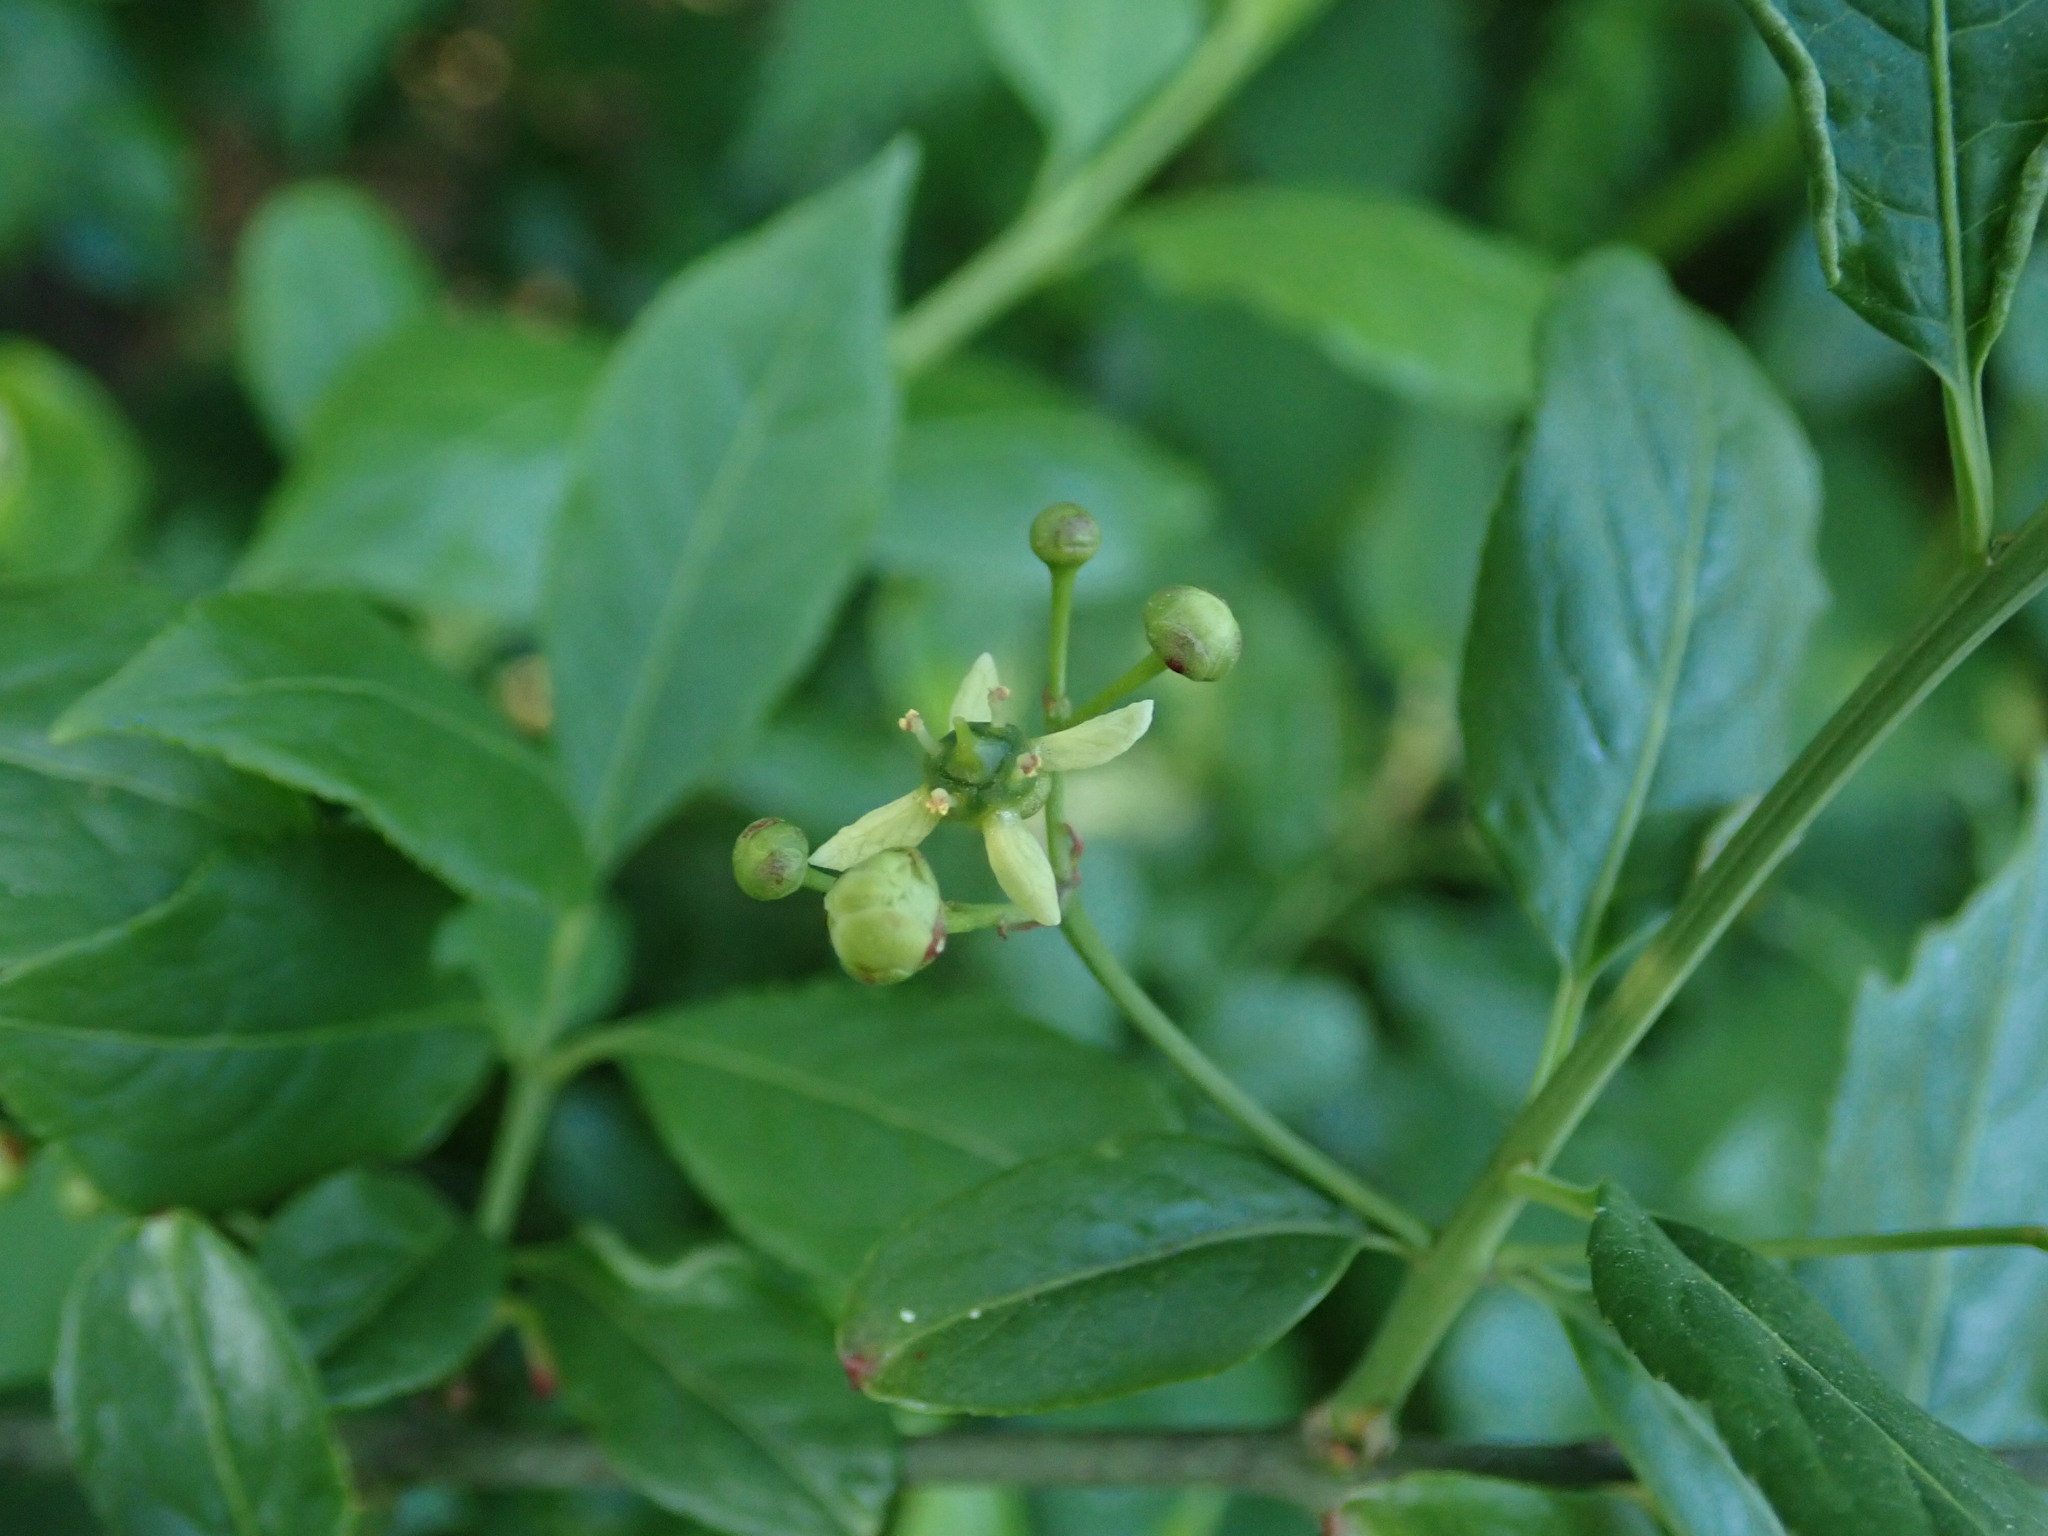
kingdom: Plantae
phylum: Tracheophyta
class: Magnoliopsida
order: Celastrales
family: Celastraceae
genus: Euonymus
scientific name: Euonymus europaeus
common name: Spindle
